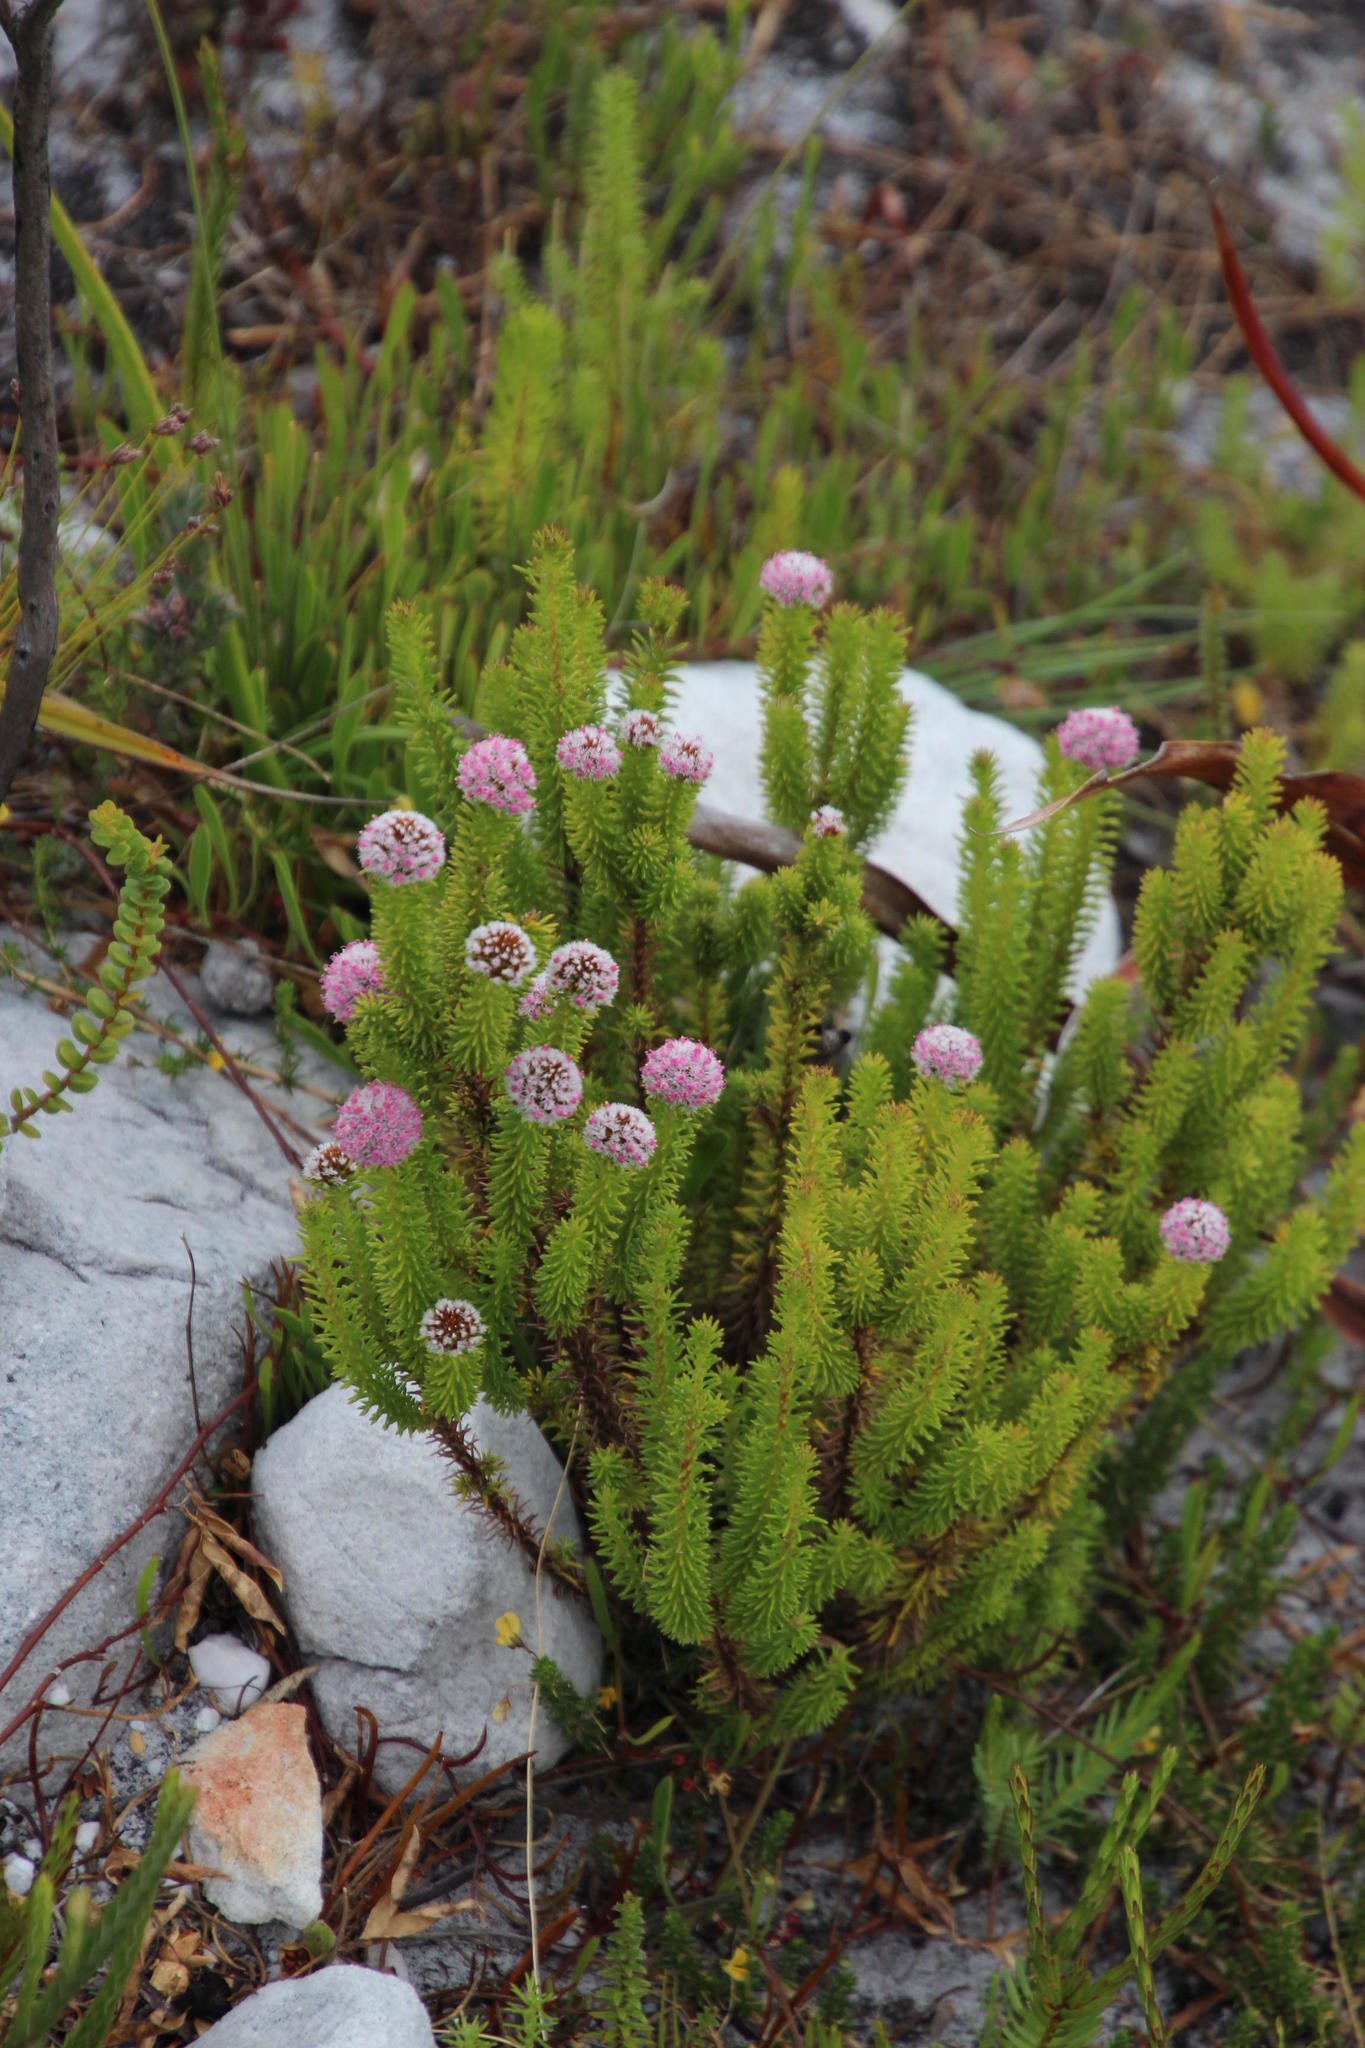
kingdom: Plantae
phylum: Tracheophyta
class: Magnoliopsida
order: Asterales
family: Asteraceae
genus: Stoebe
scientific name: Stoebe rosea
